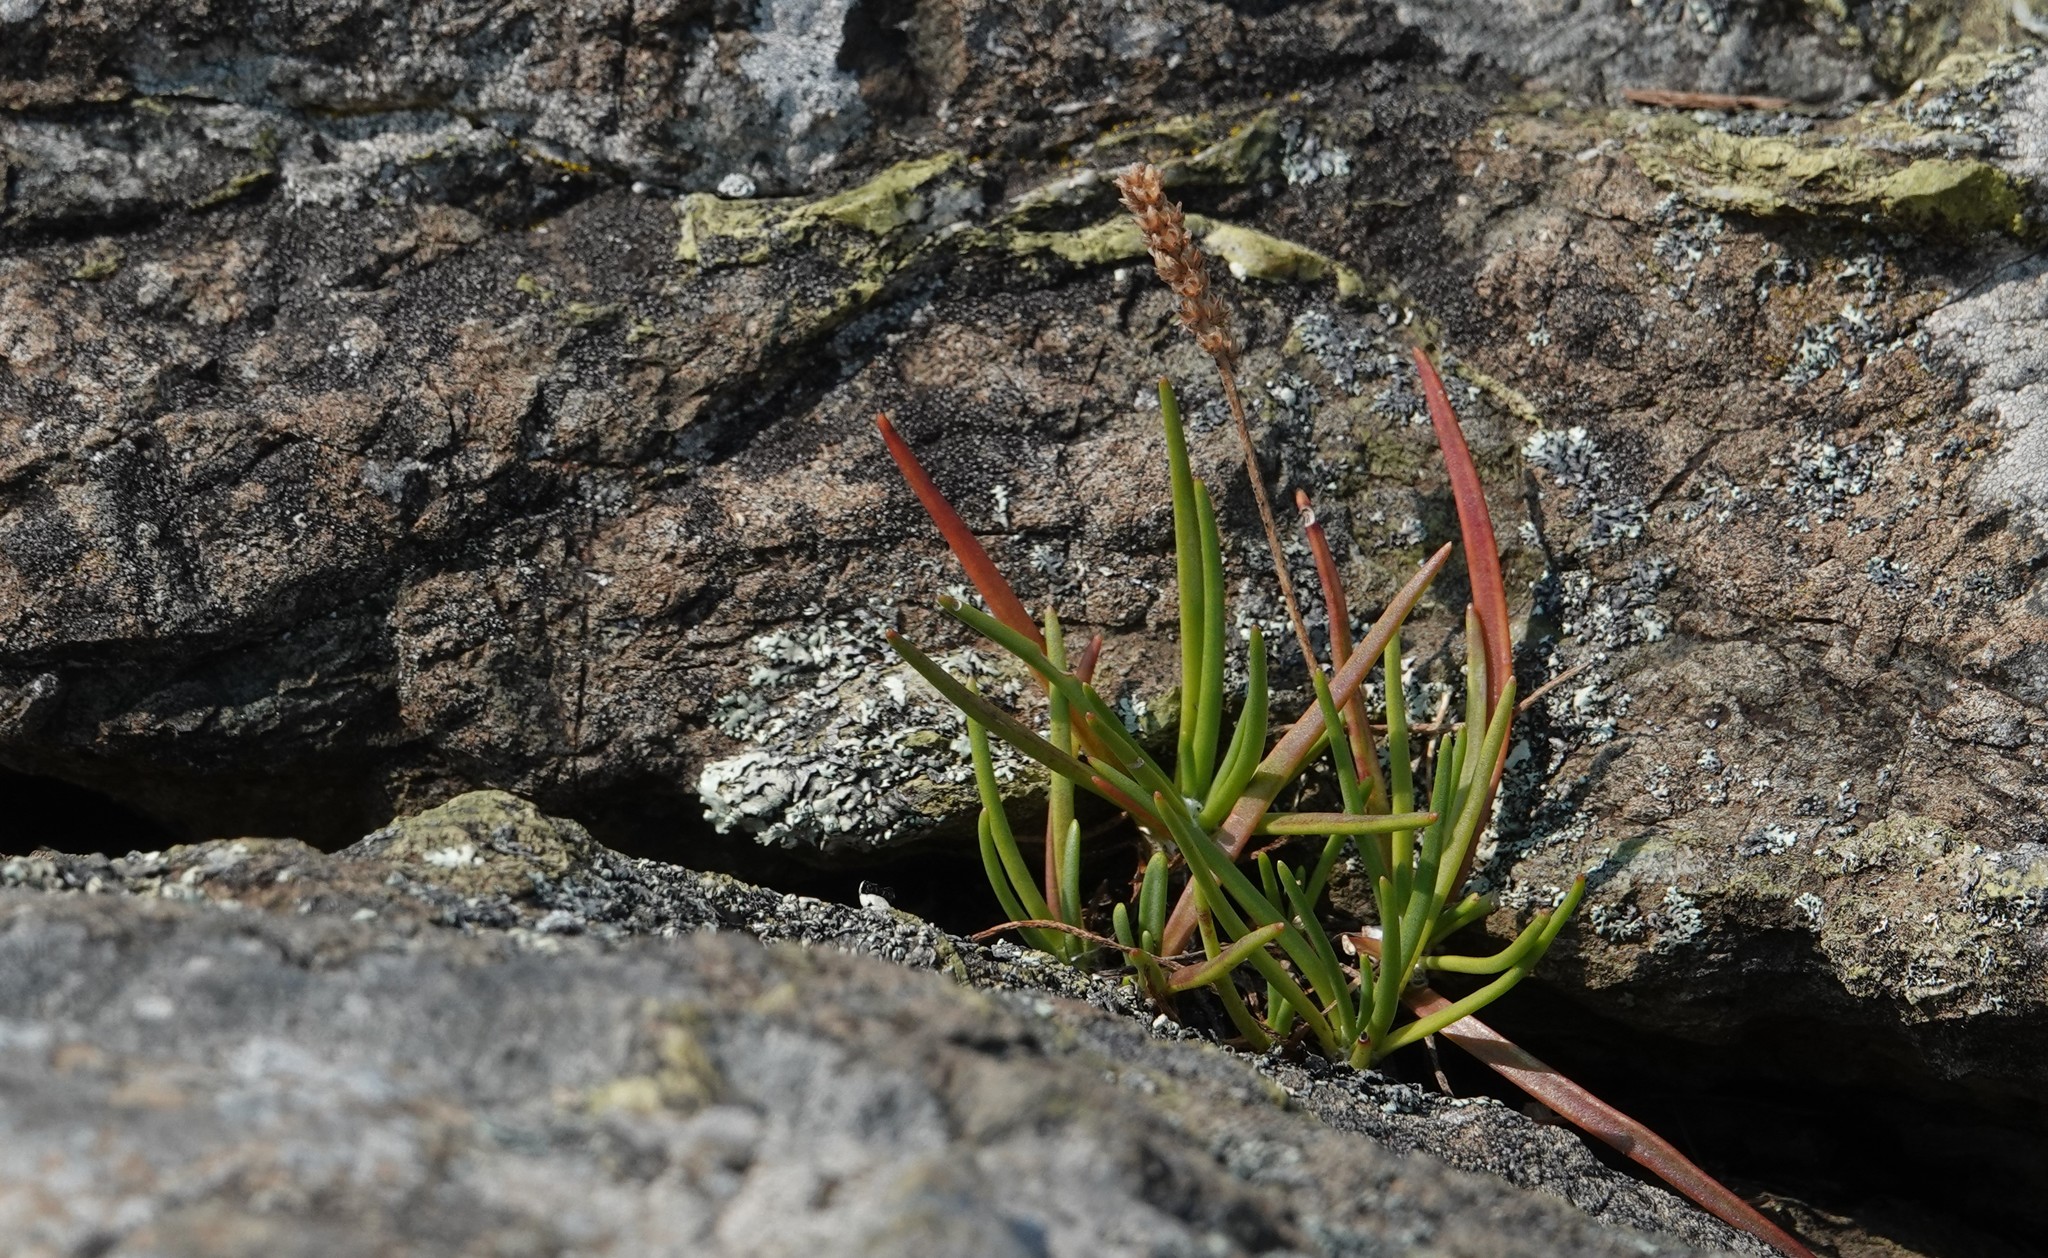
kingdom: Plantae
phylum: Tracheophyta
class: Magnoliopsida
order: Lamiales
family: Plantaginaceae
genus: Plantago
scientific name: Plantago maritima
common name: Sea plantain
